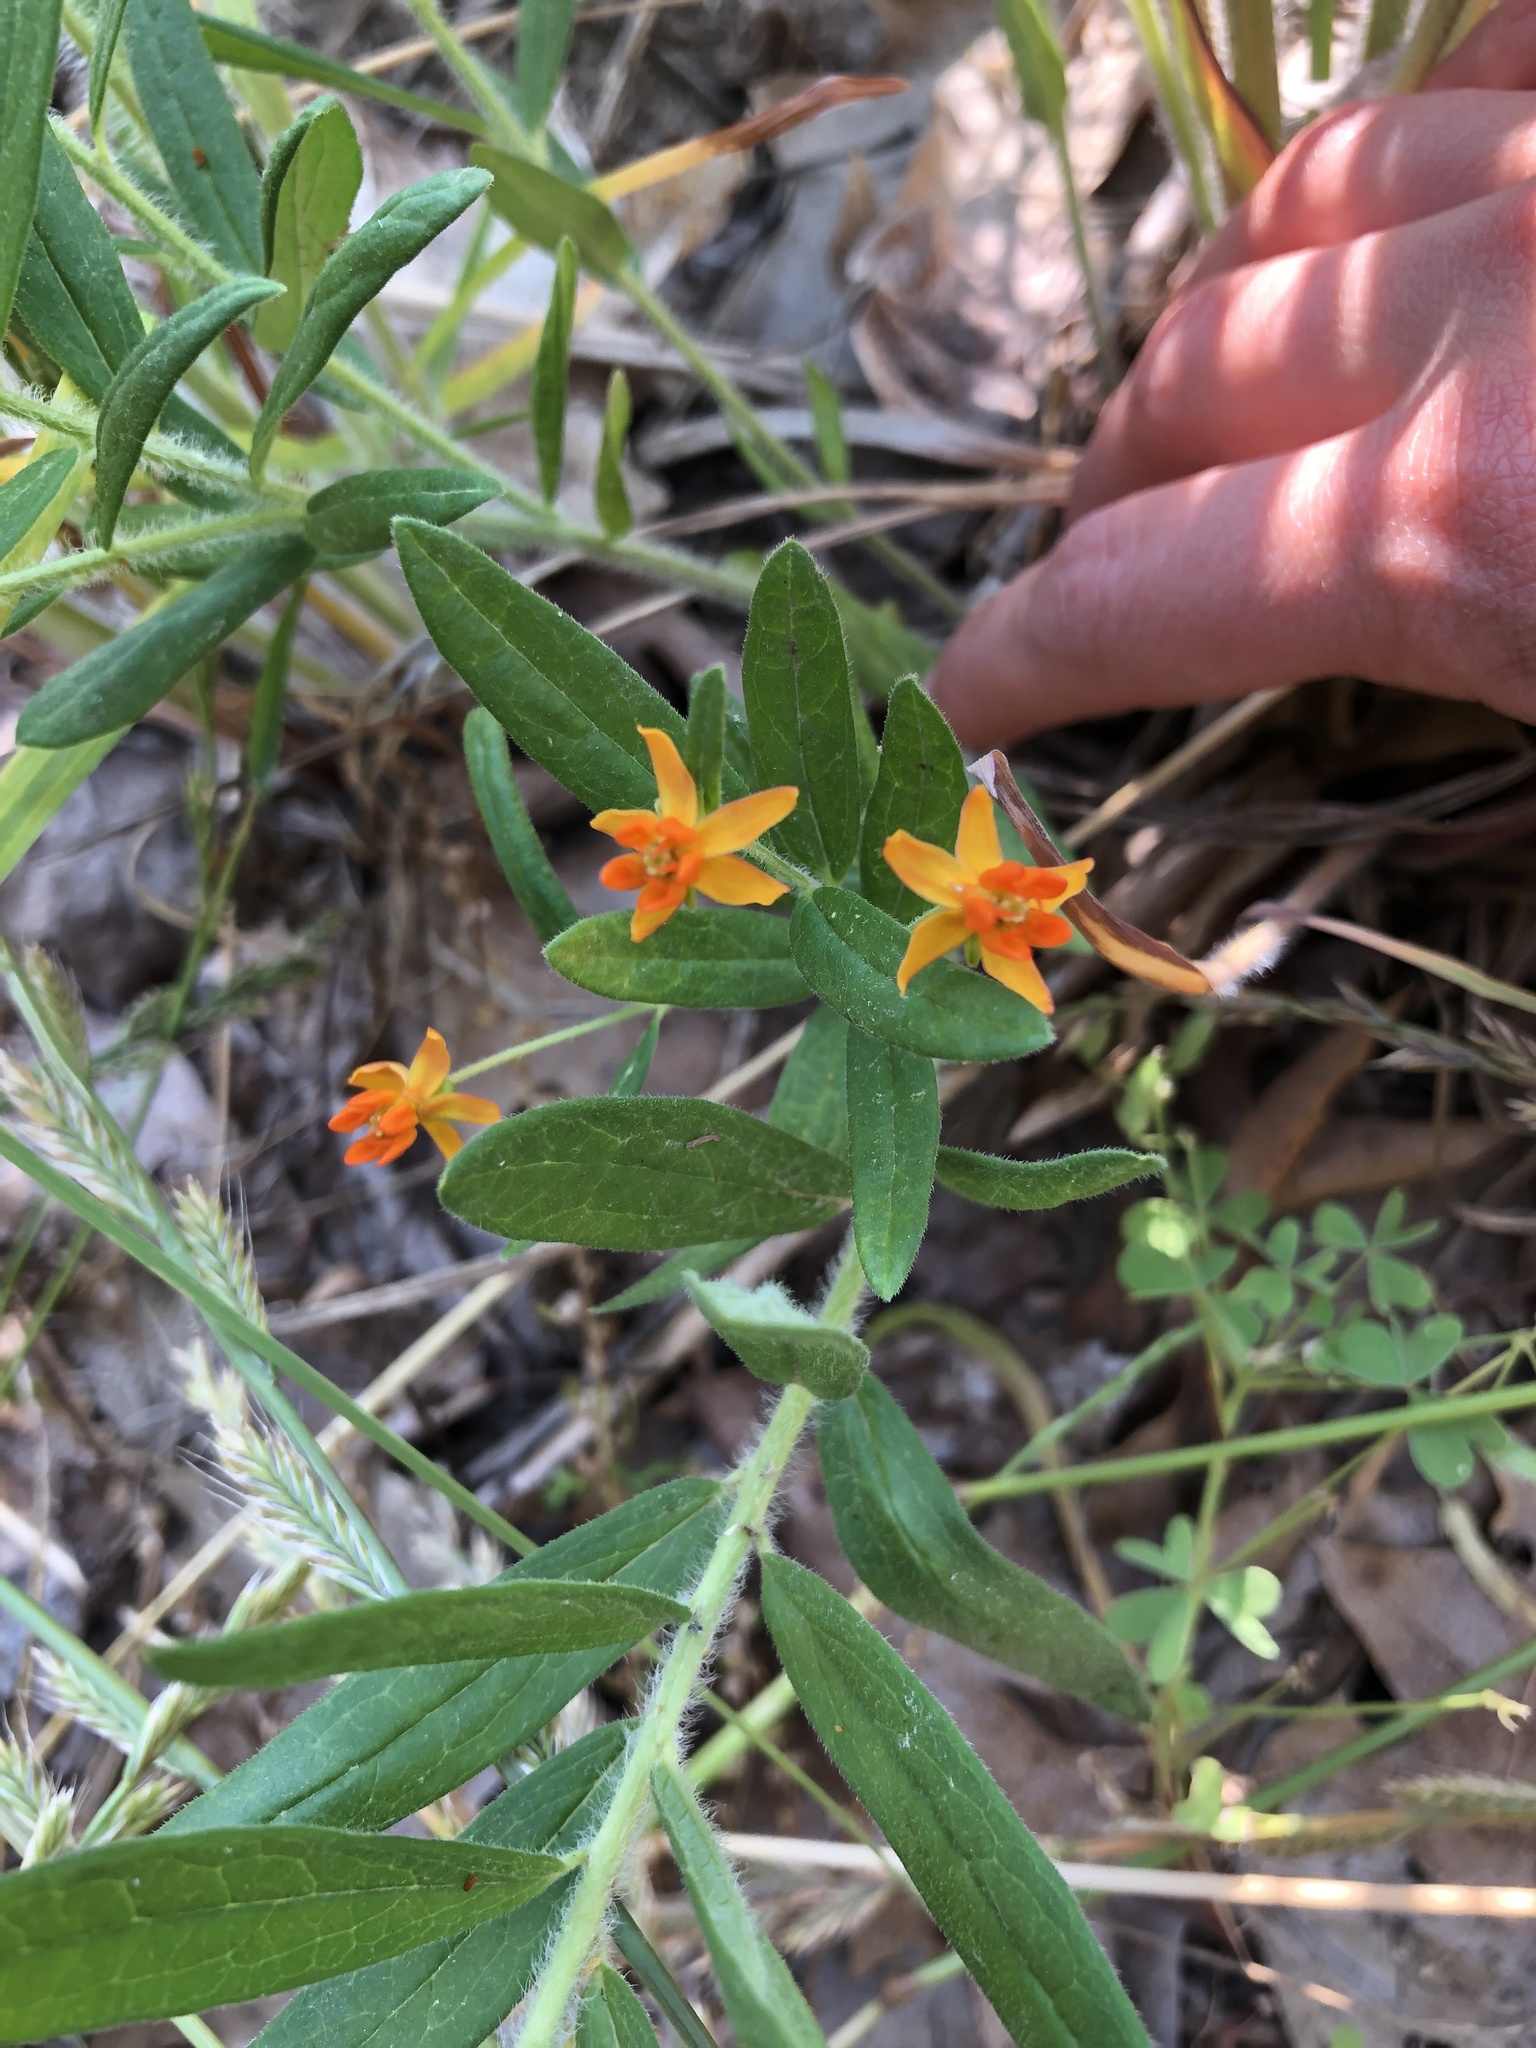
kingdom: Plantae
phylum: Tracheophyta
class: Magnoliopsida
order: Gentianales
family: Apocynaceae
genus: Asclepias
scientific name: Asclepias tuberosa
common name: Butterfly milkweed
